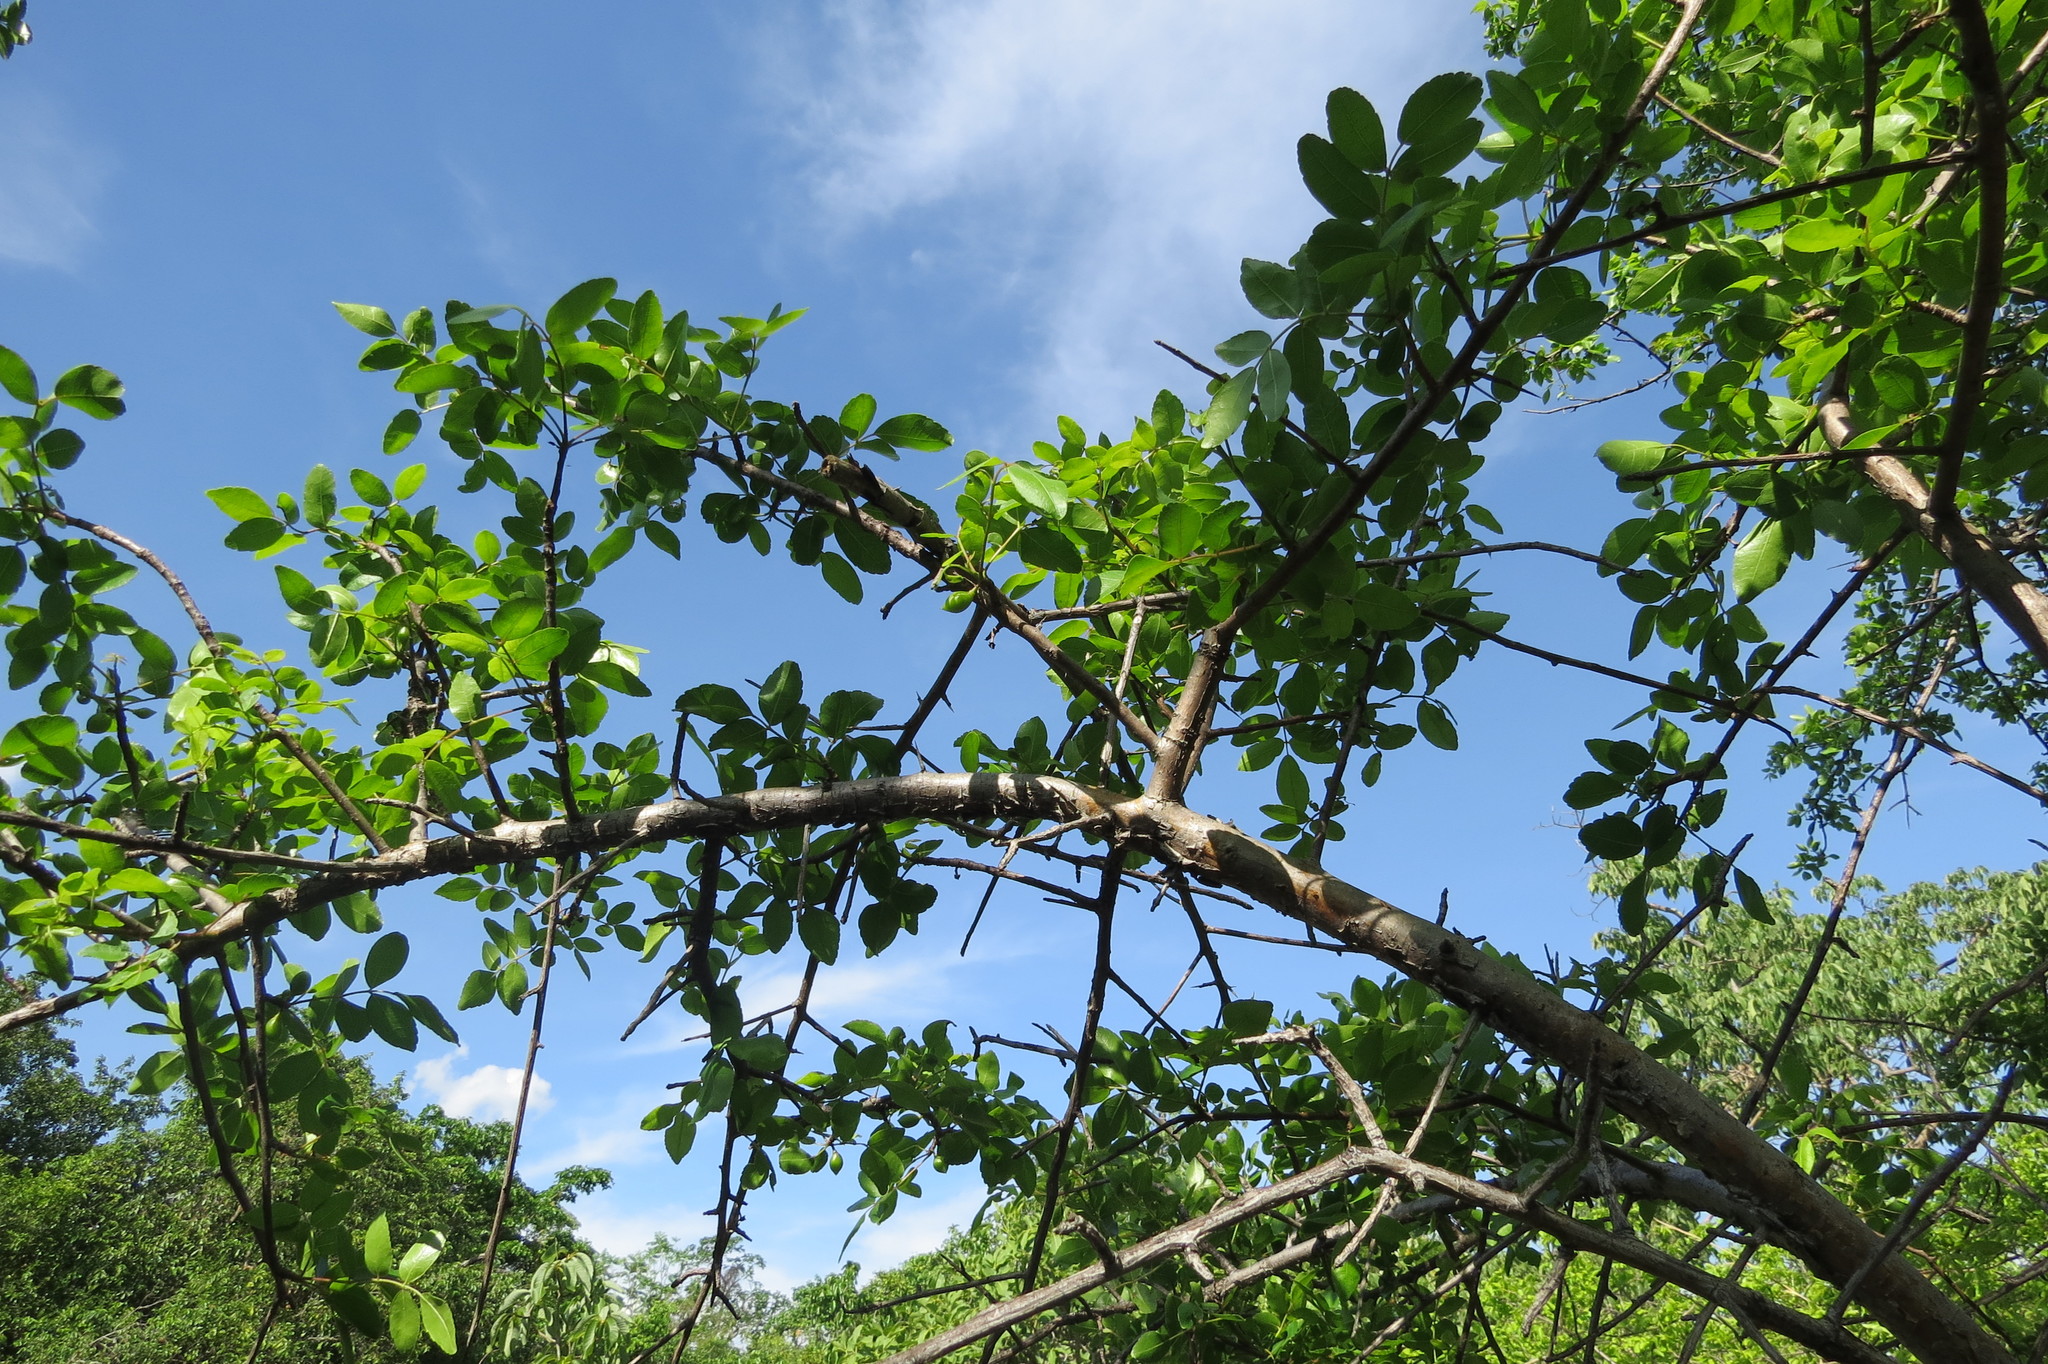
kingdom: Plantae
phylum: Tracheophyta
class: Magnoliopsida
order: Sapindales
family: Burseraceae
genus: Bursera
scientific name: Bursera leptophloeos
